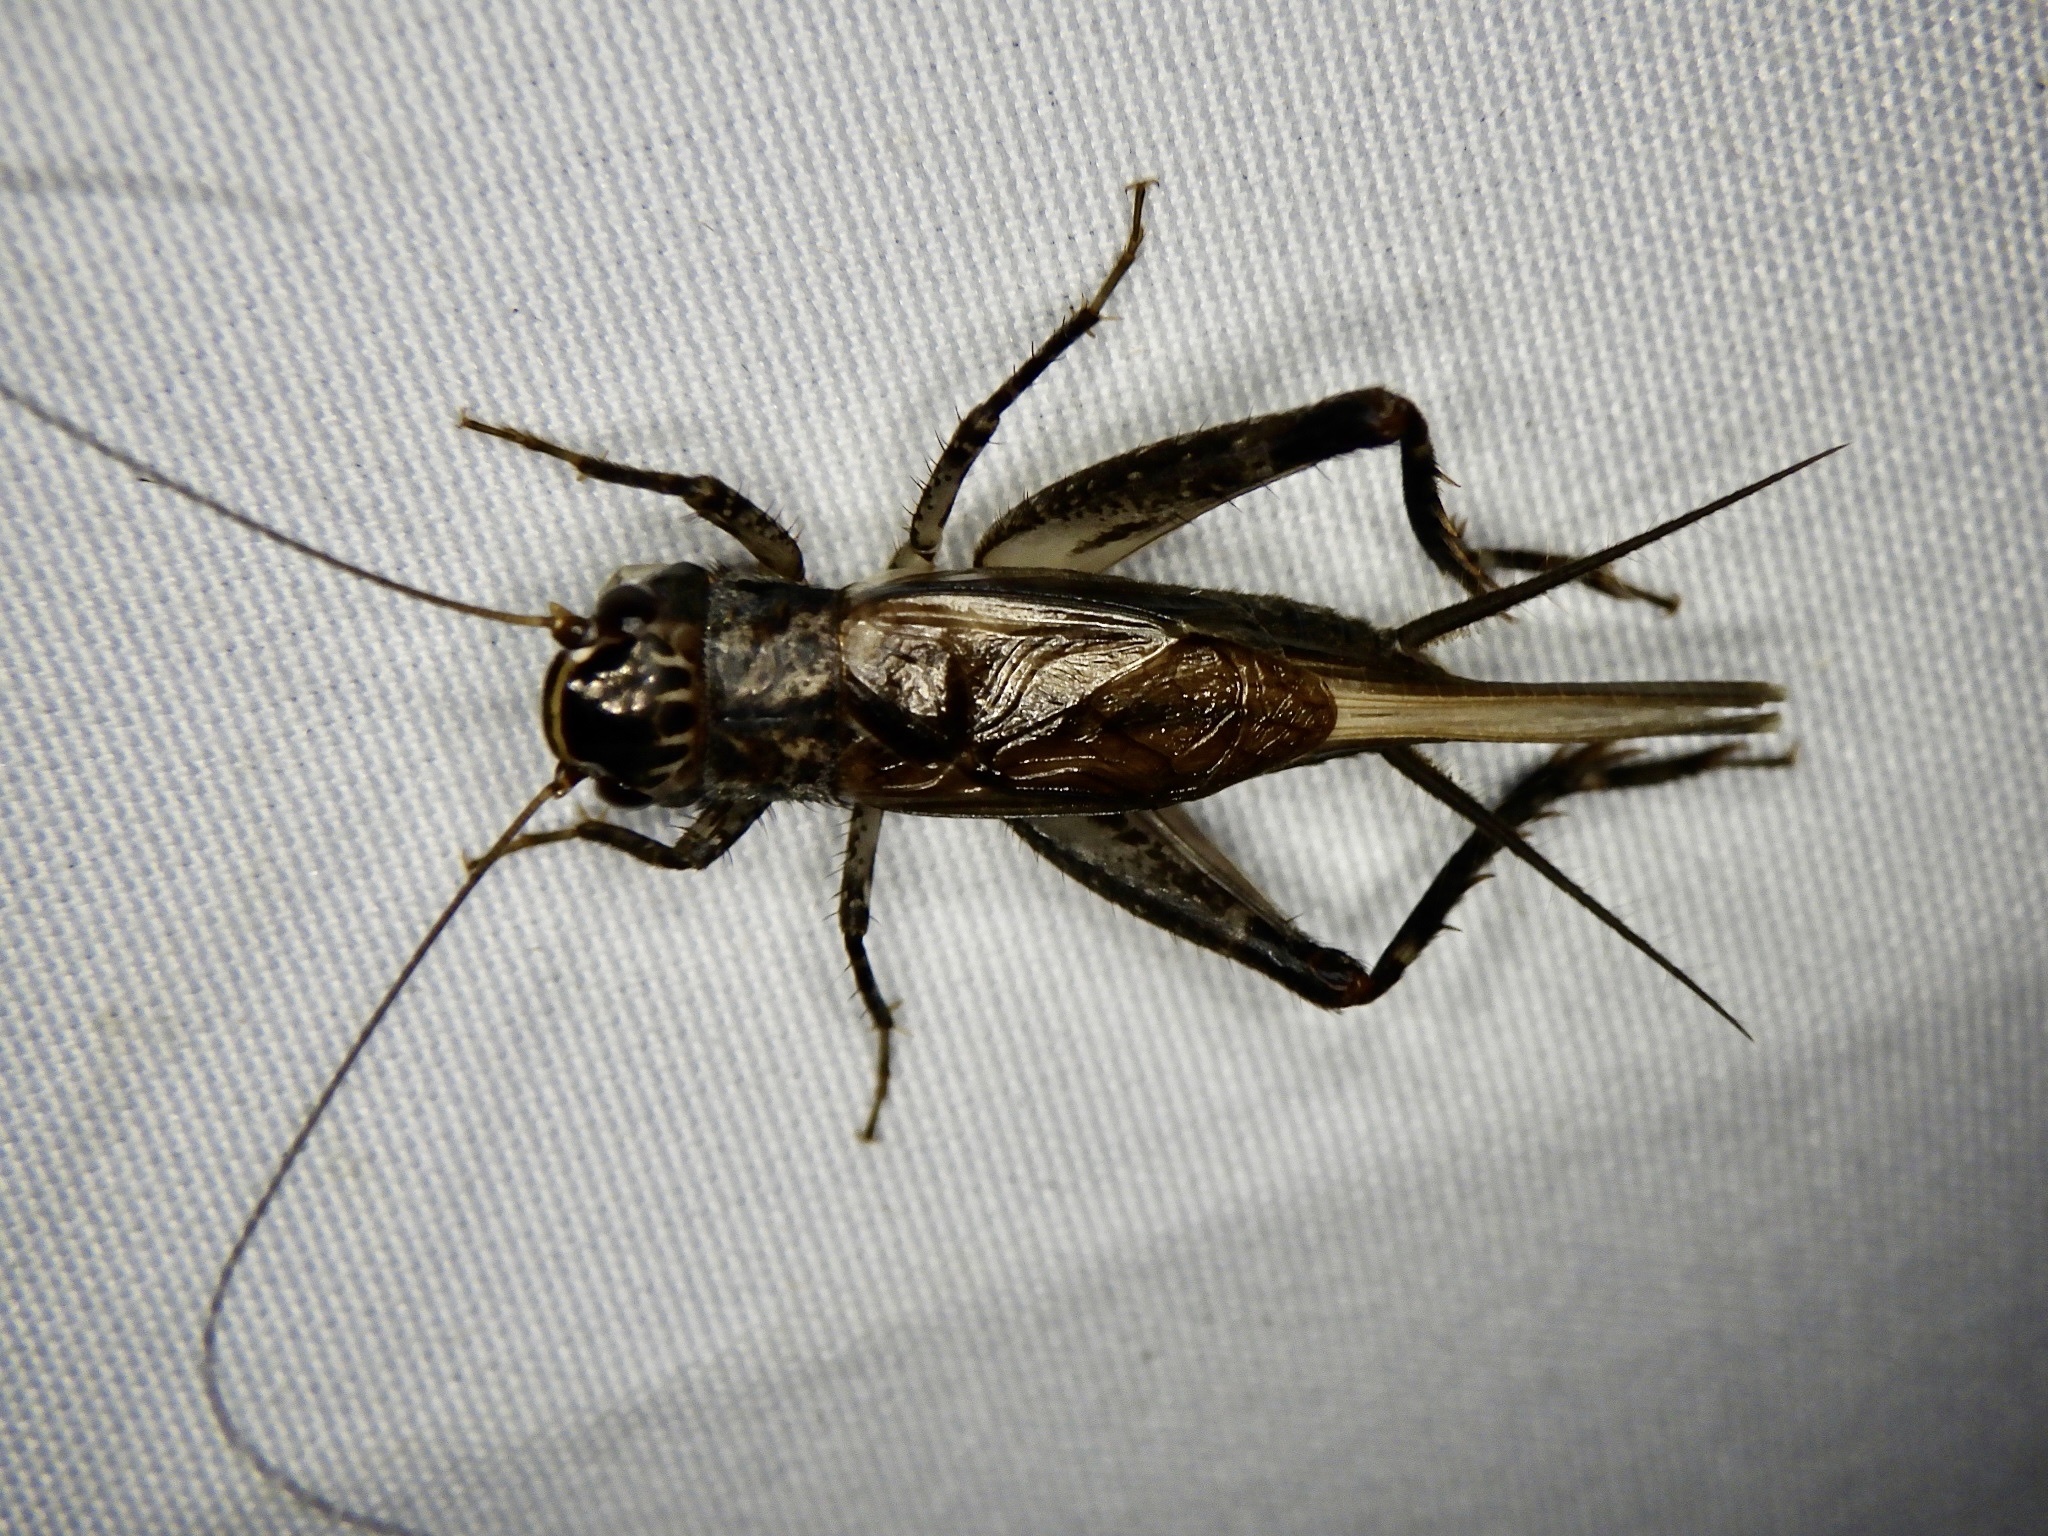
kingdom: Animalia
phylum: Arthropoda
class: Insecta
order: Orthoptera
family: Gryllidae
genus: Loxoblemmus
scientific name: Loxoblemmus sylvestris
